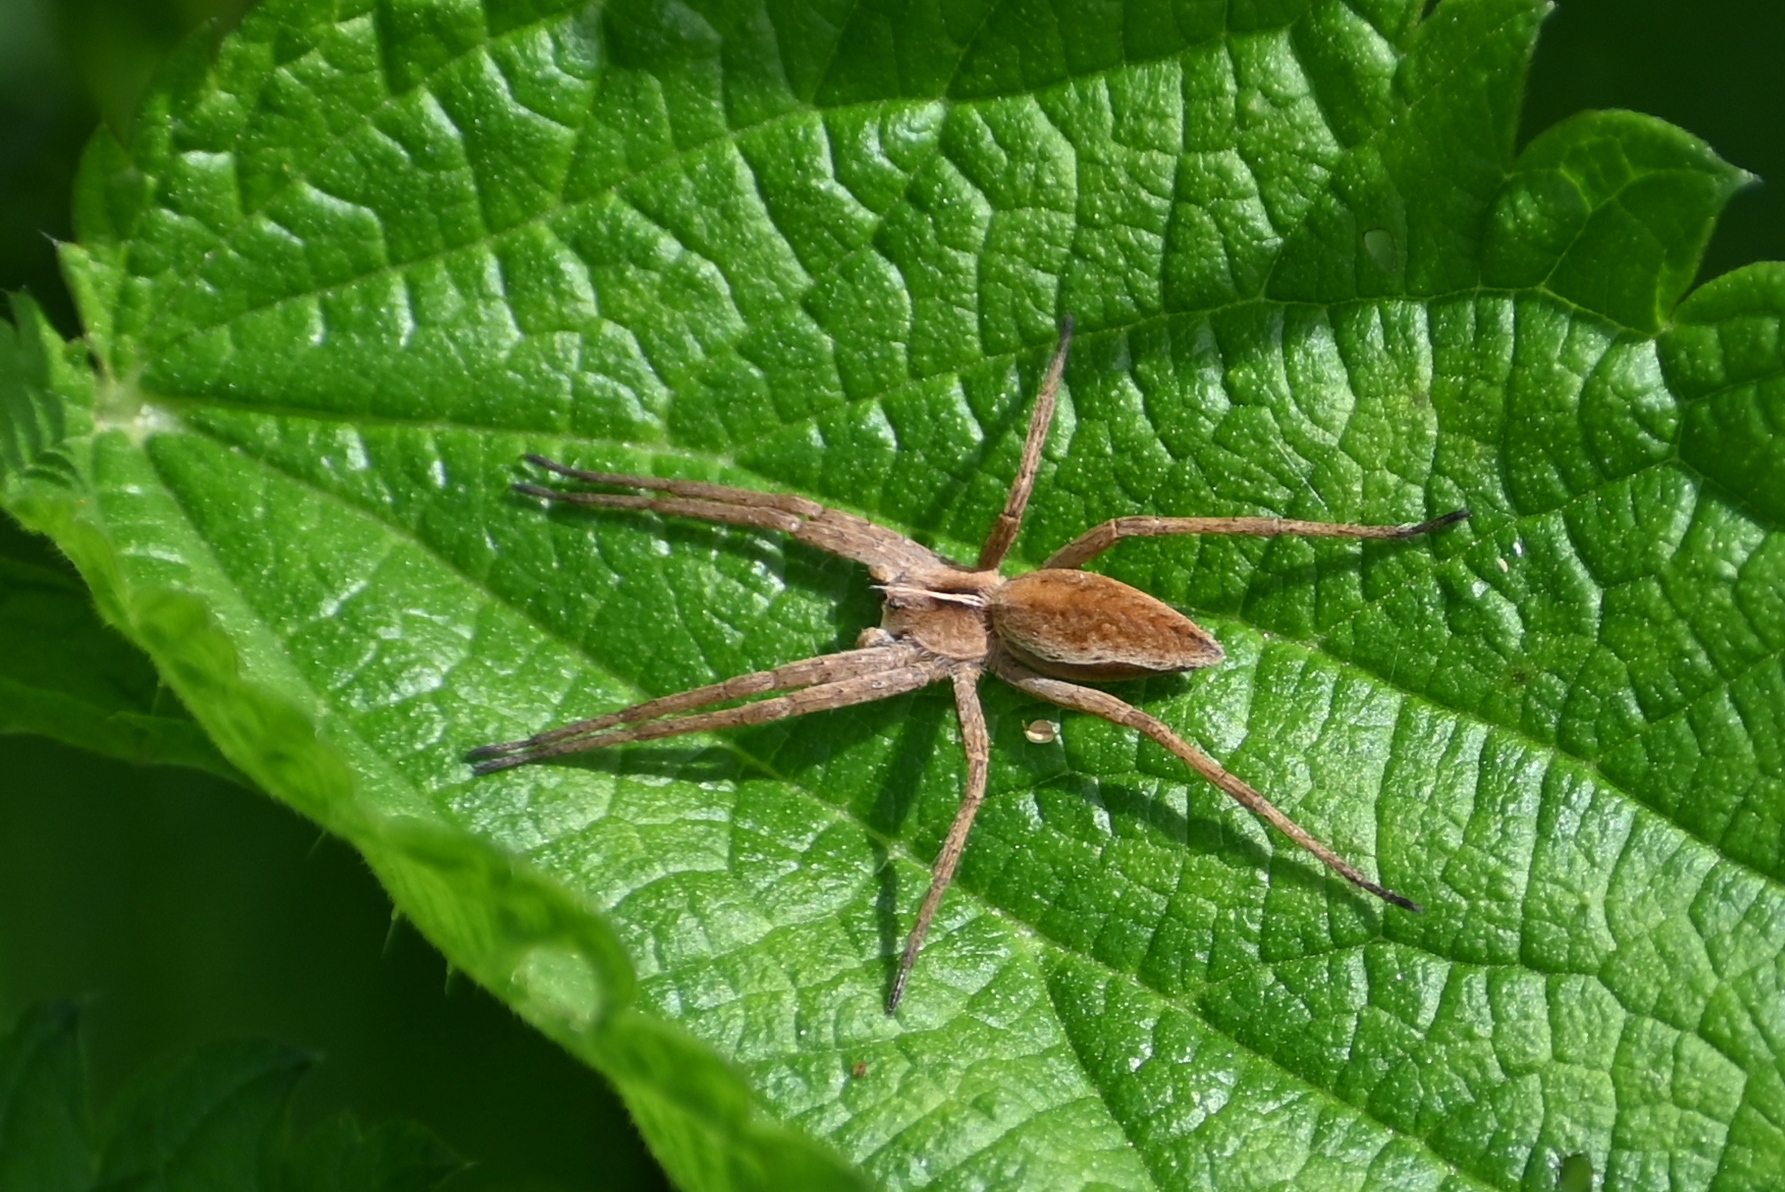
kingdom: Animalia
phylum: Arthropoda
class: Arachnida
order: Araneae
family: Pisauridae
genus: Pisaura
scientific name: Pisaura mirabilis
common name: Tent spider
